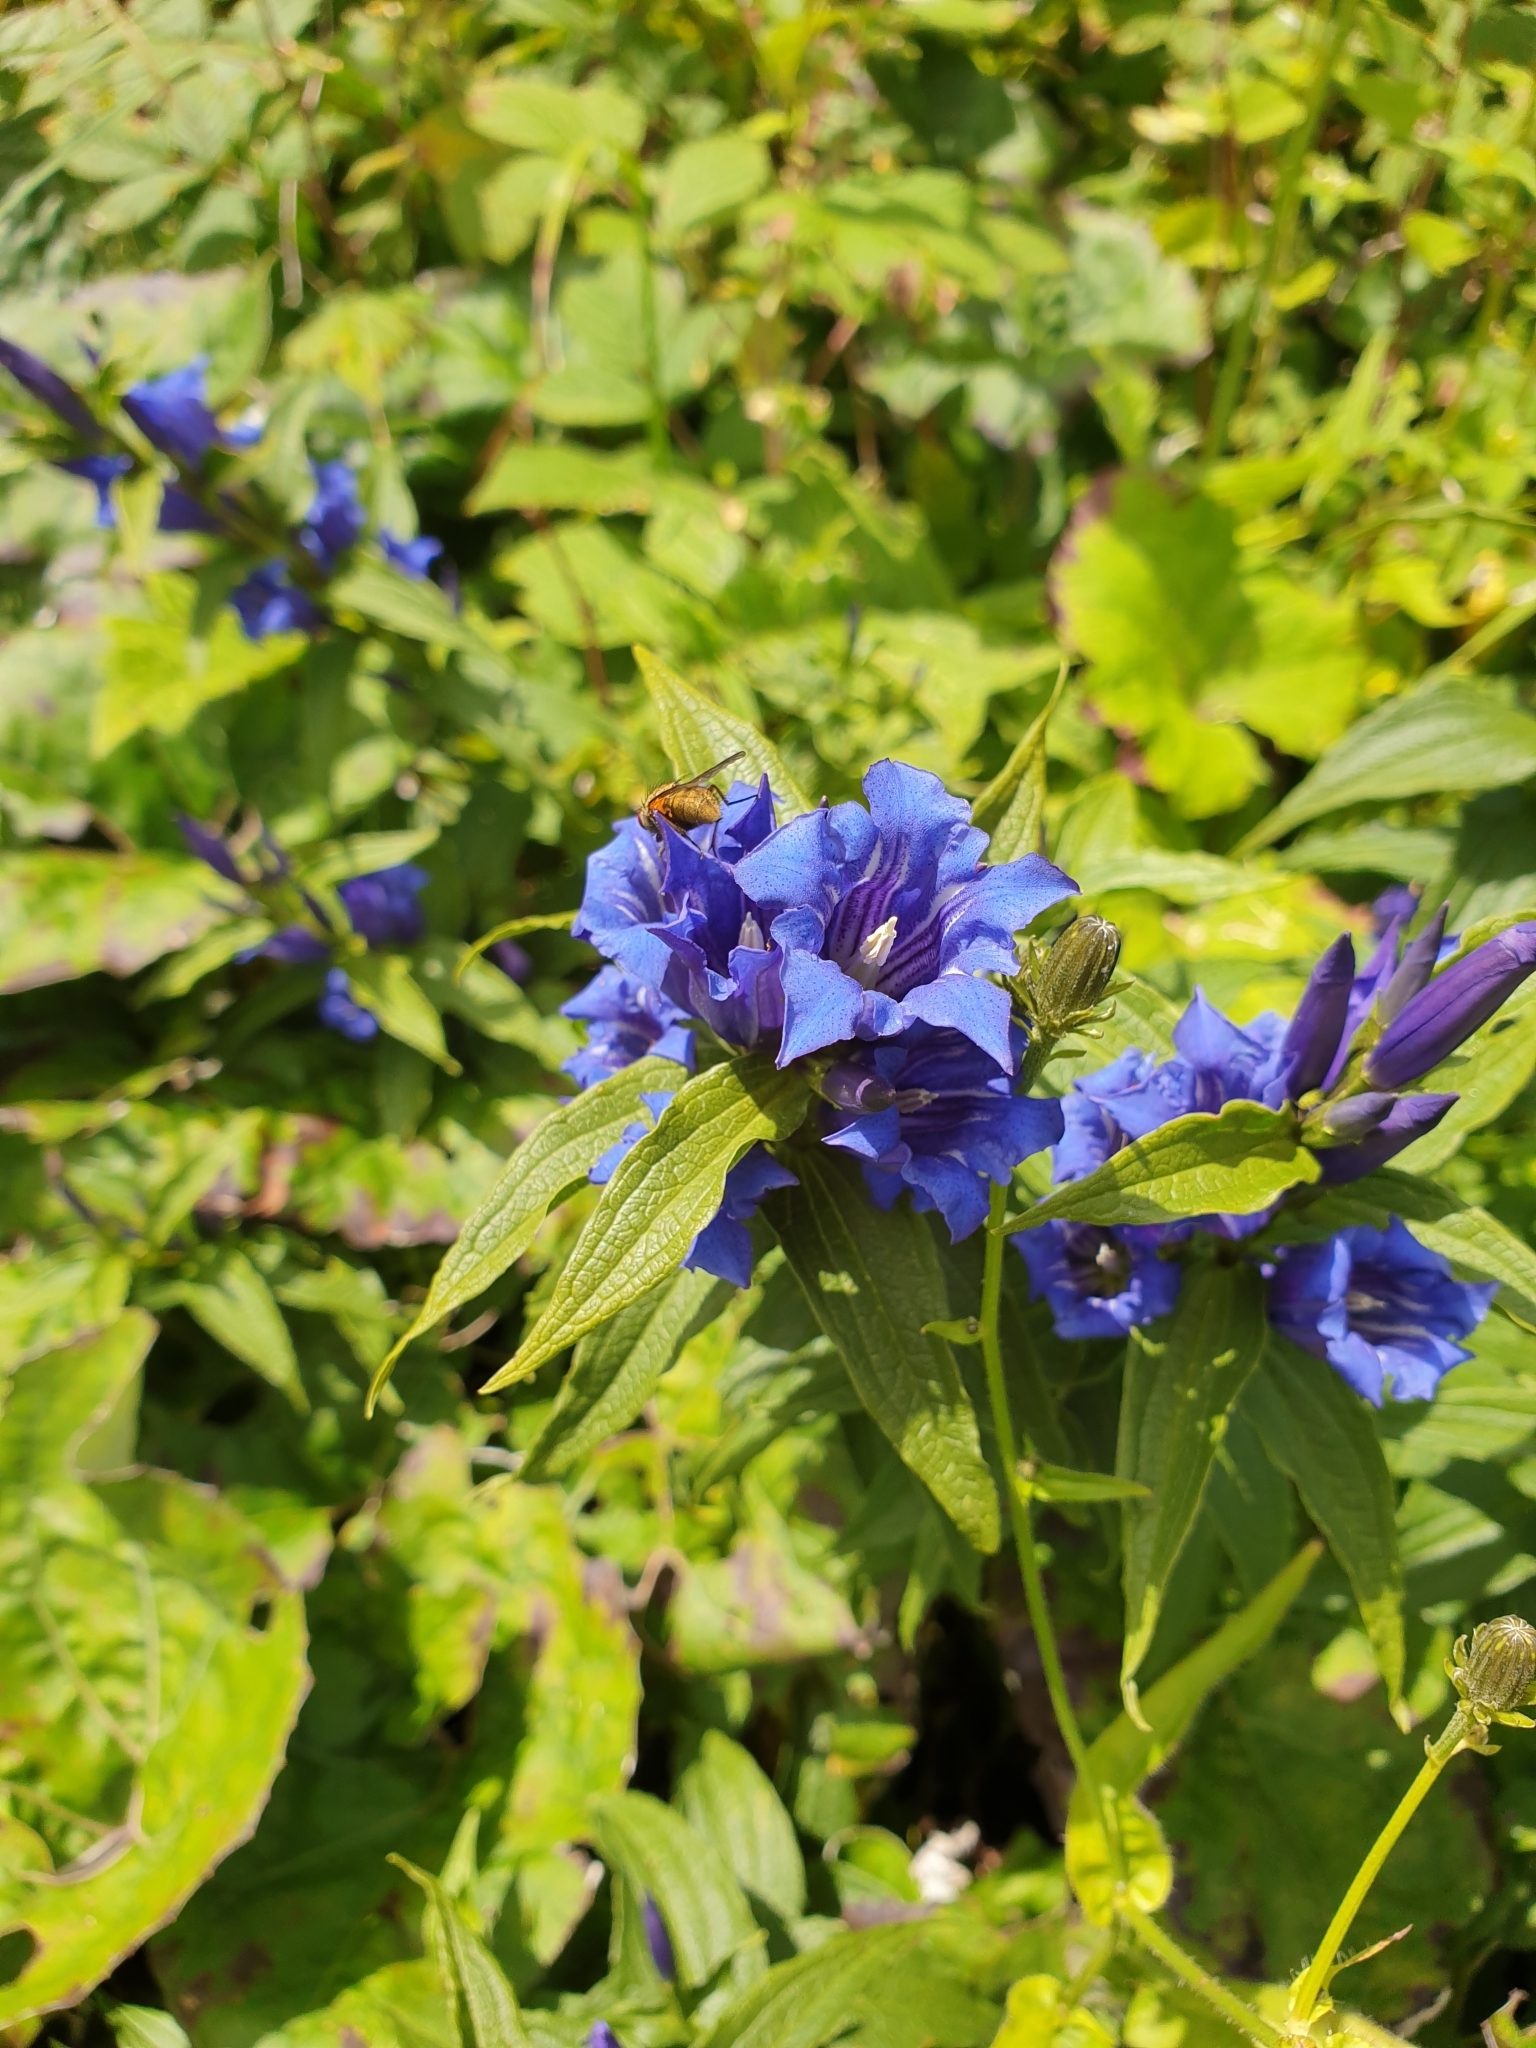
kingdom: Plantae
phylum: Tracheophyta
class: Magnoliopsida
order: Gentianales
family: Gentianaceae
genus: Gentiana
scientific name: Gentiana asclepiadea
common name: Willow gentian
